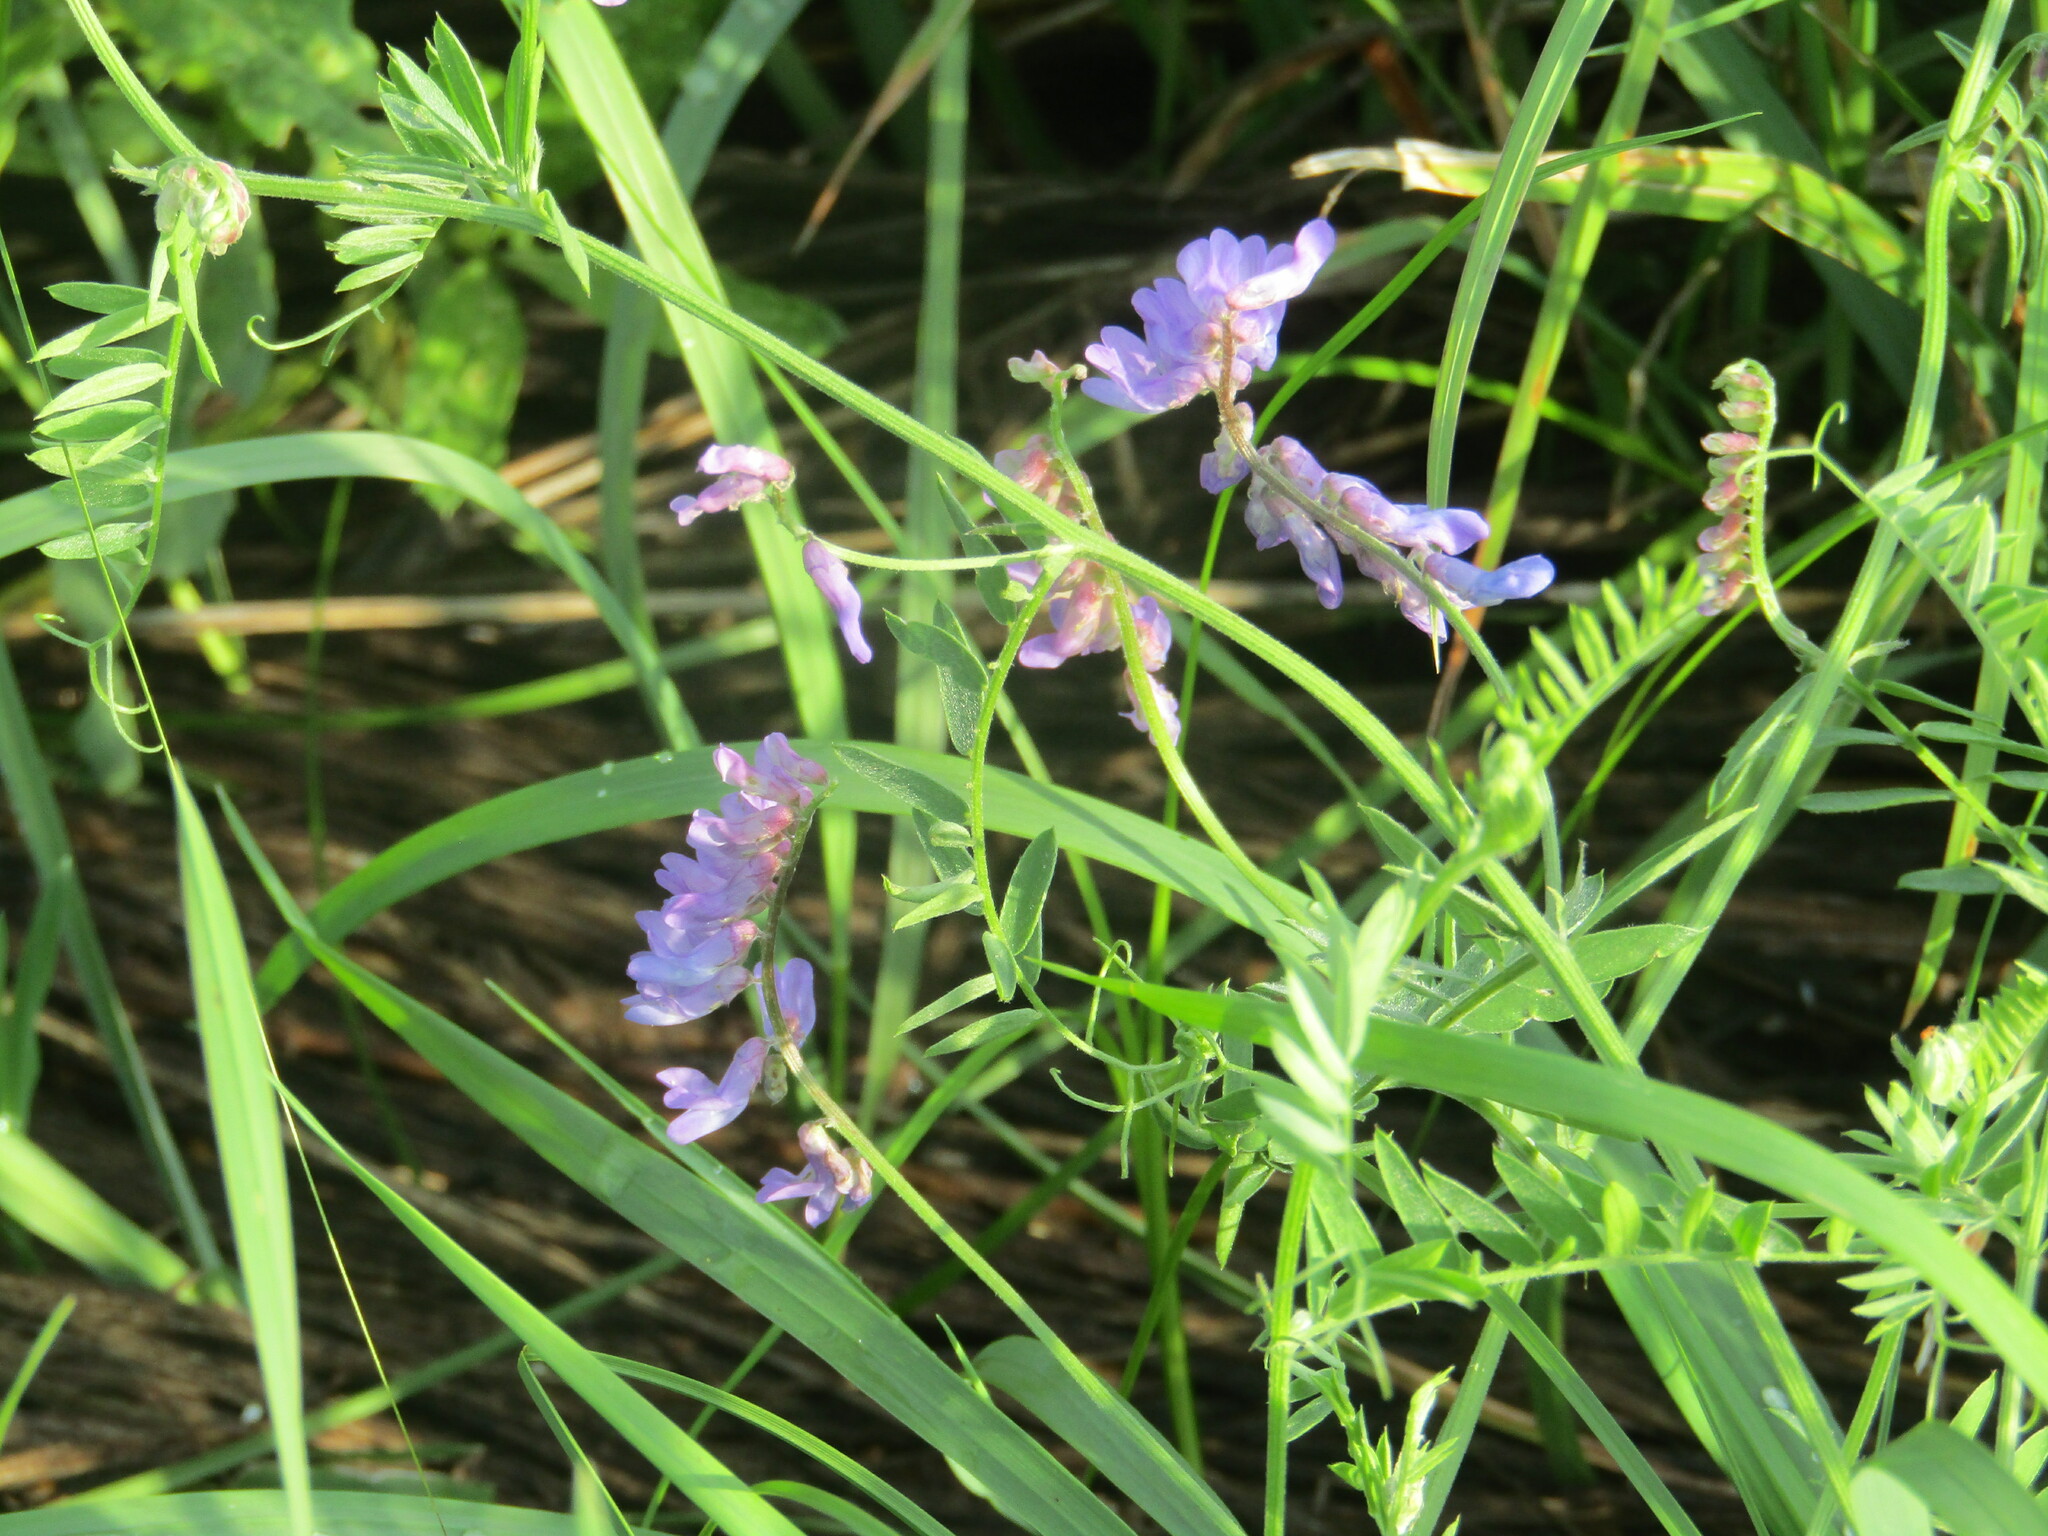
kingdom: Plantae
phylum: Tracheophyta
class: Magnoliopsida
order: Fabales
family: Fabaceae
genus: Vicia
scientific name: Vicia cracca
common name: Bird vetch
